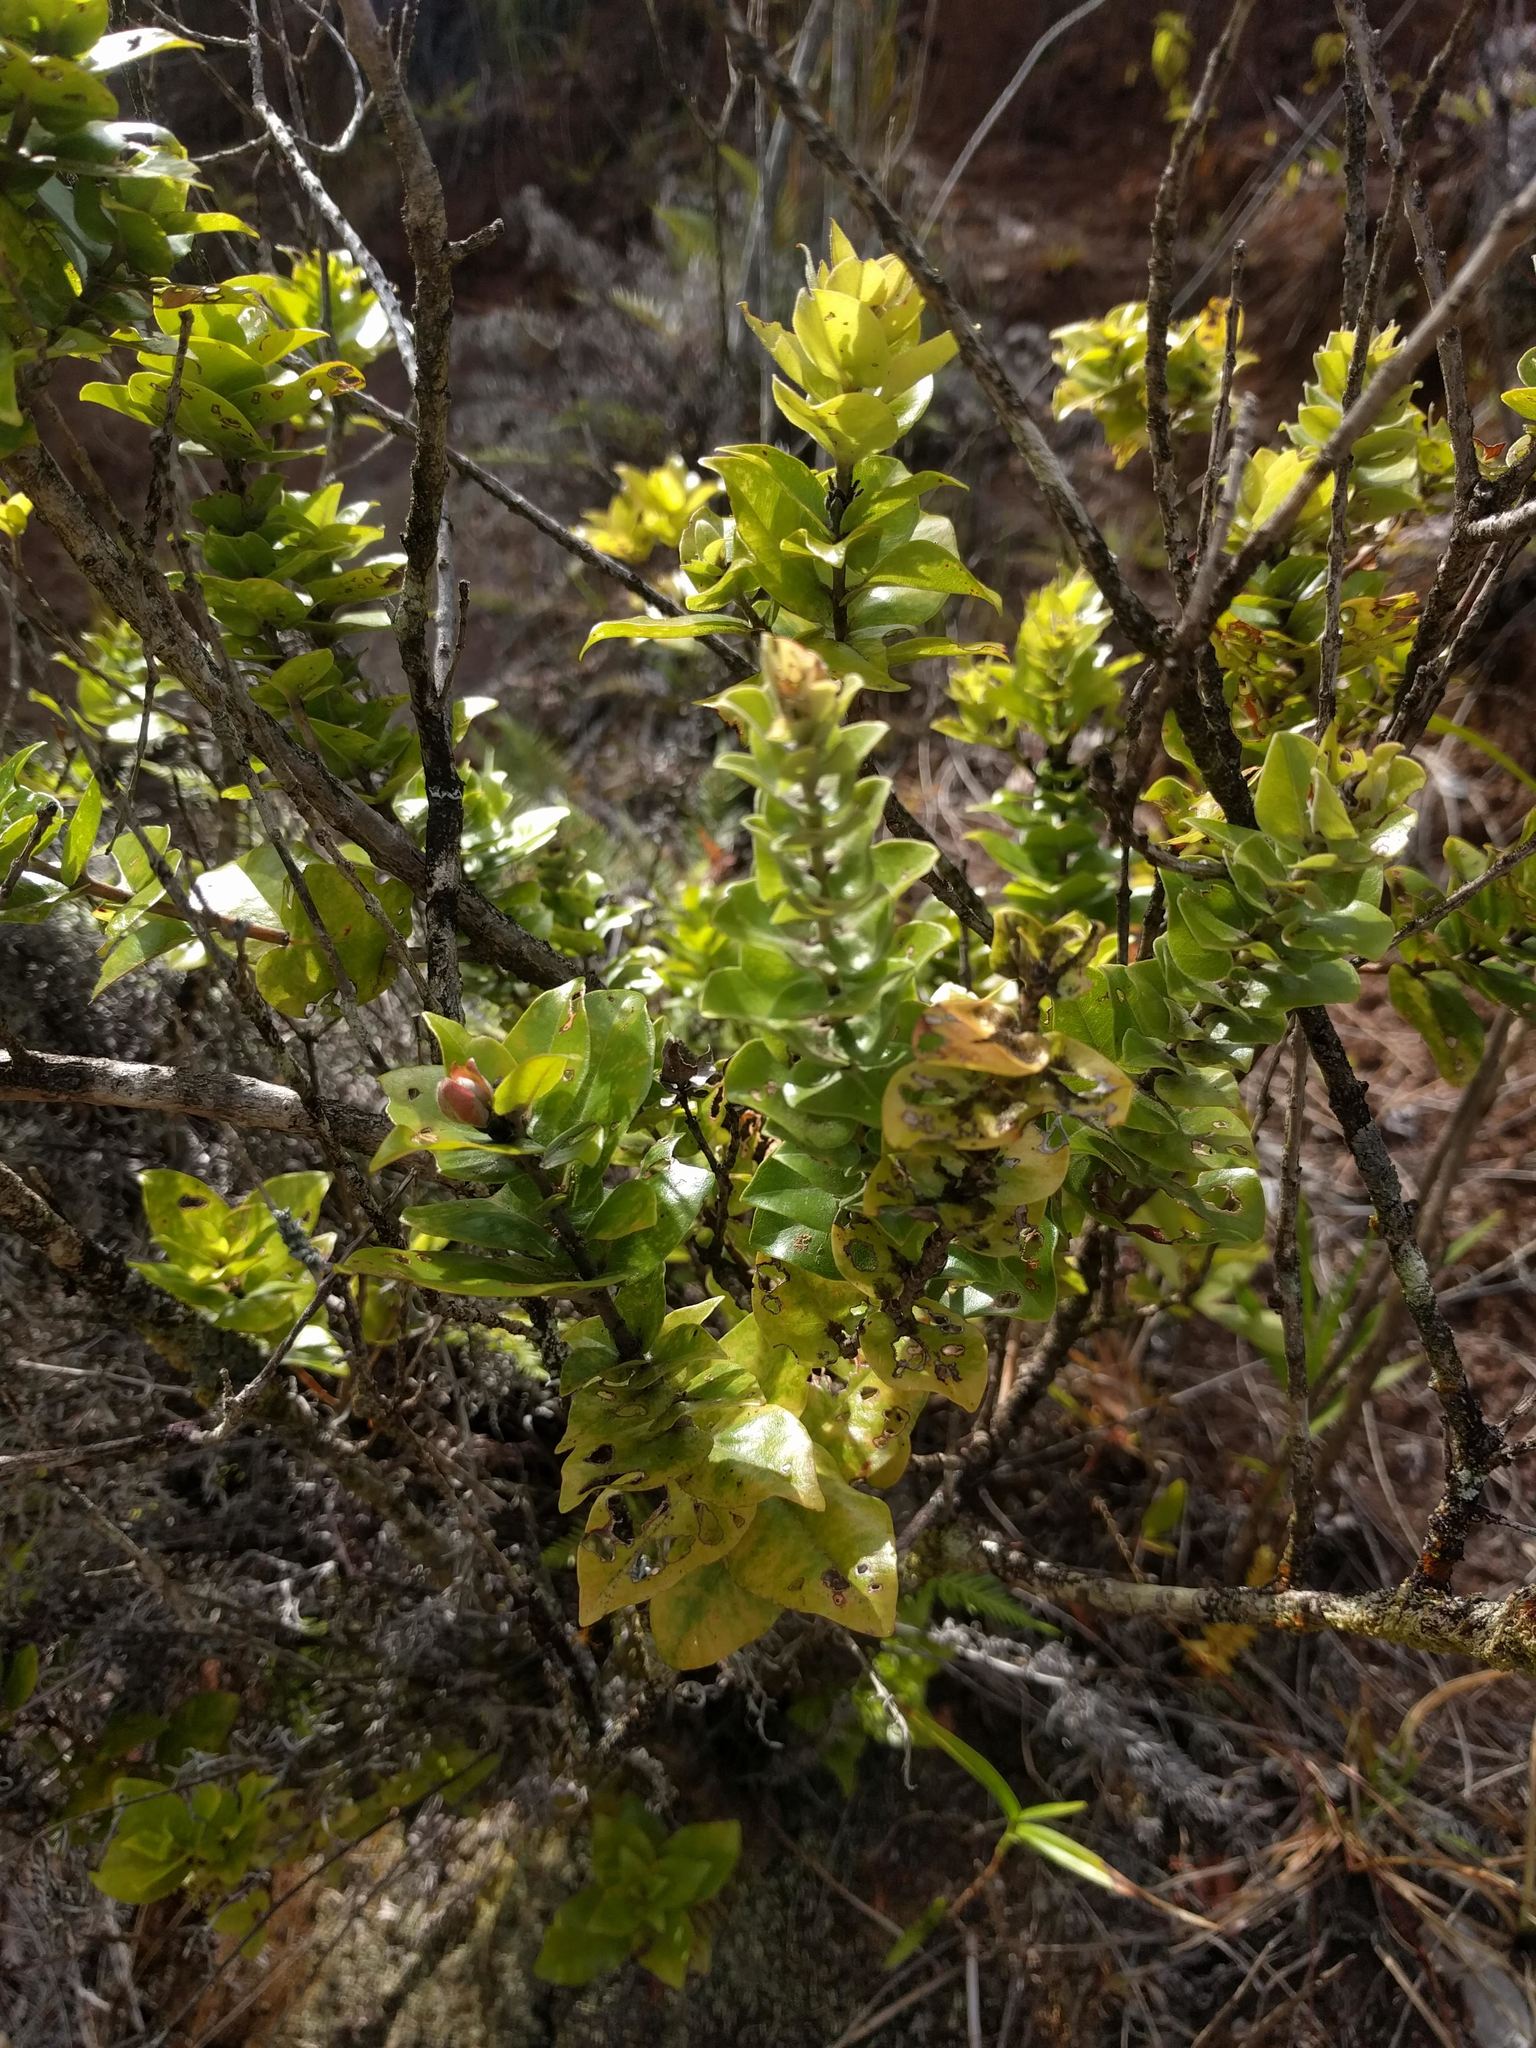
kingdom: Plantae
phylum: Tracheophyta
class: Magnoliopsida
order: Myrtales
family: Myrtaceae
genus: Metrosideros
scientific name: Metrosideros polymorpha
